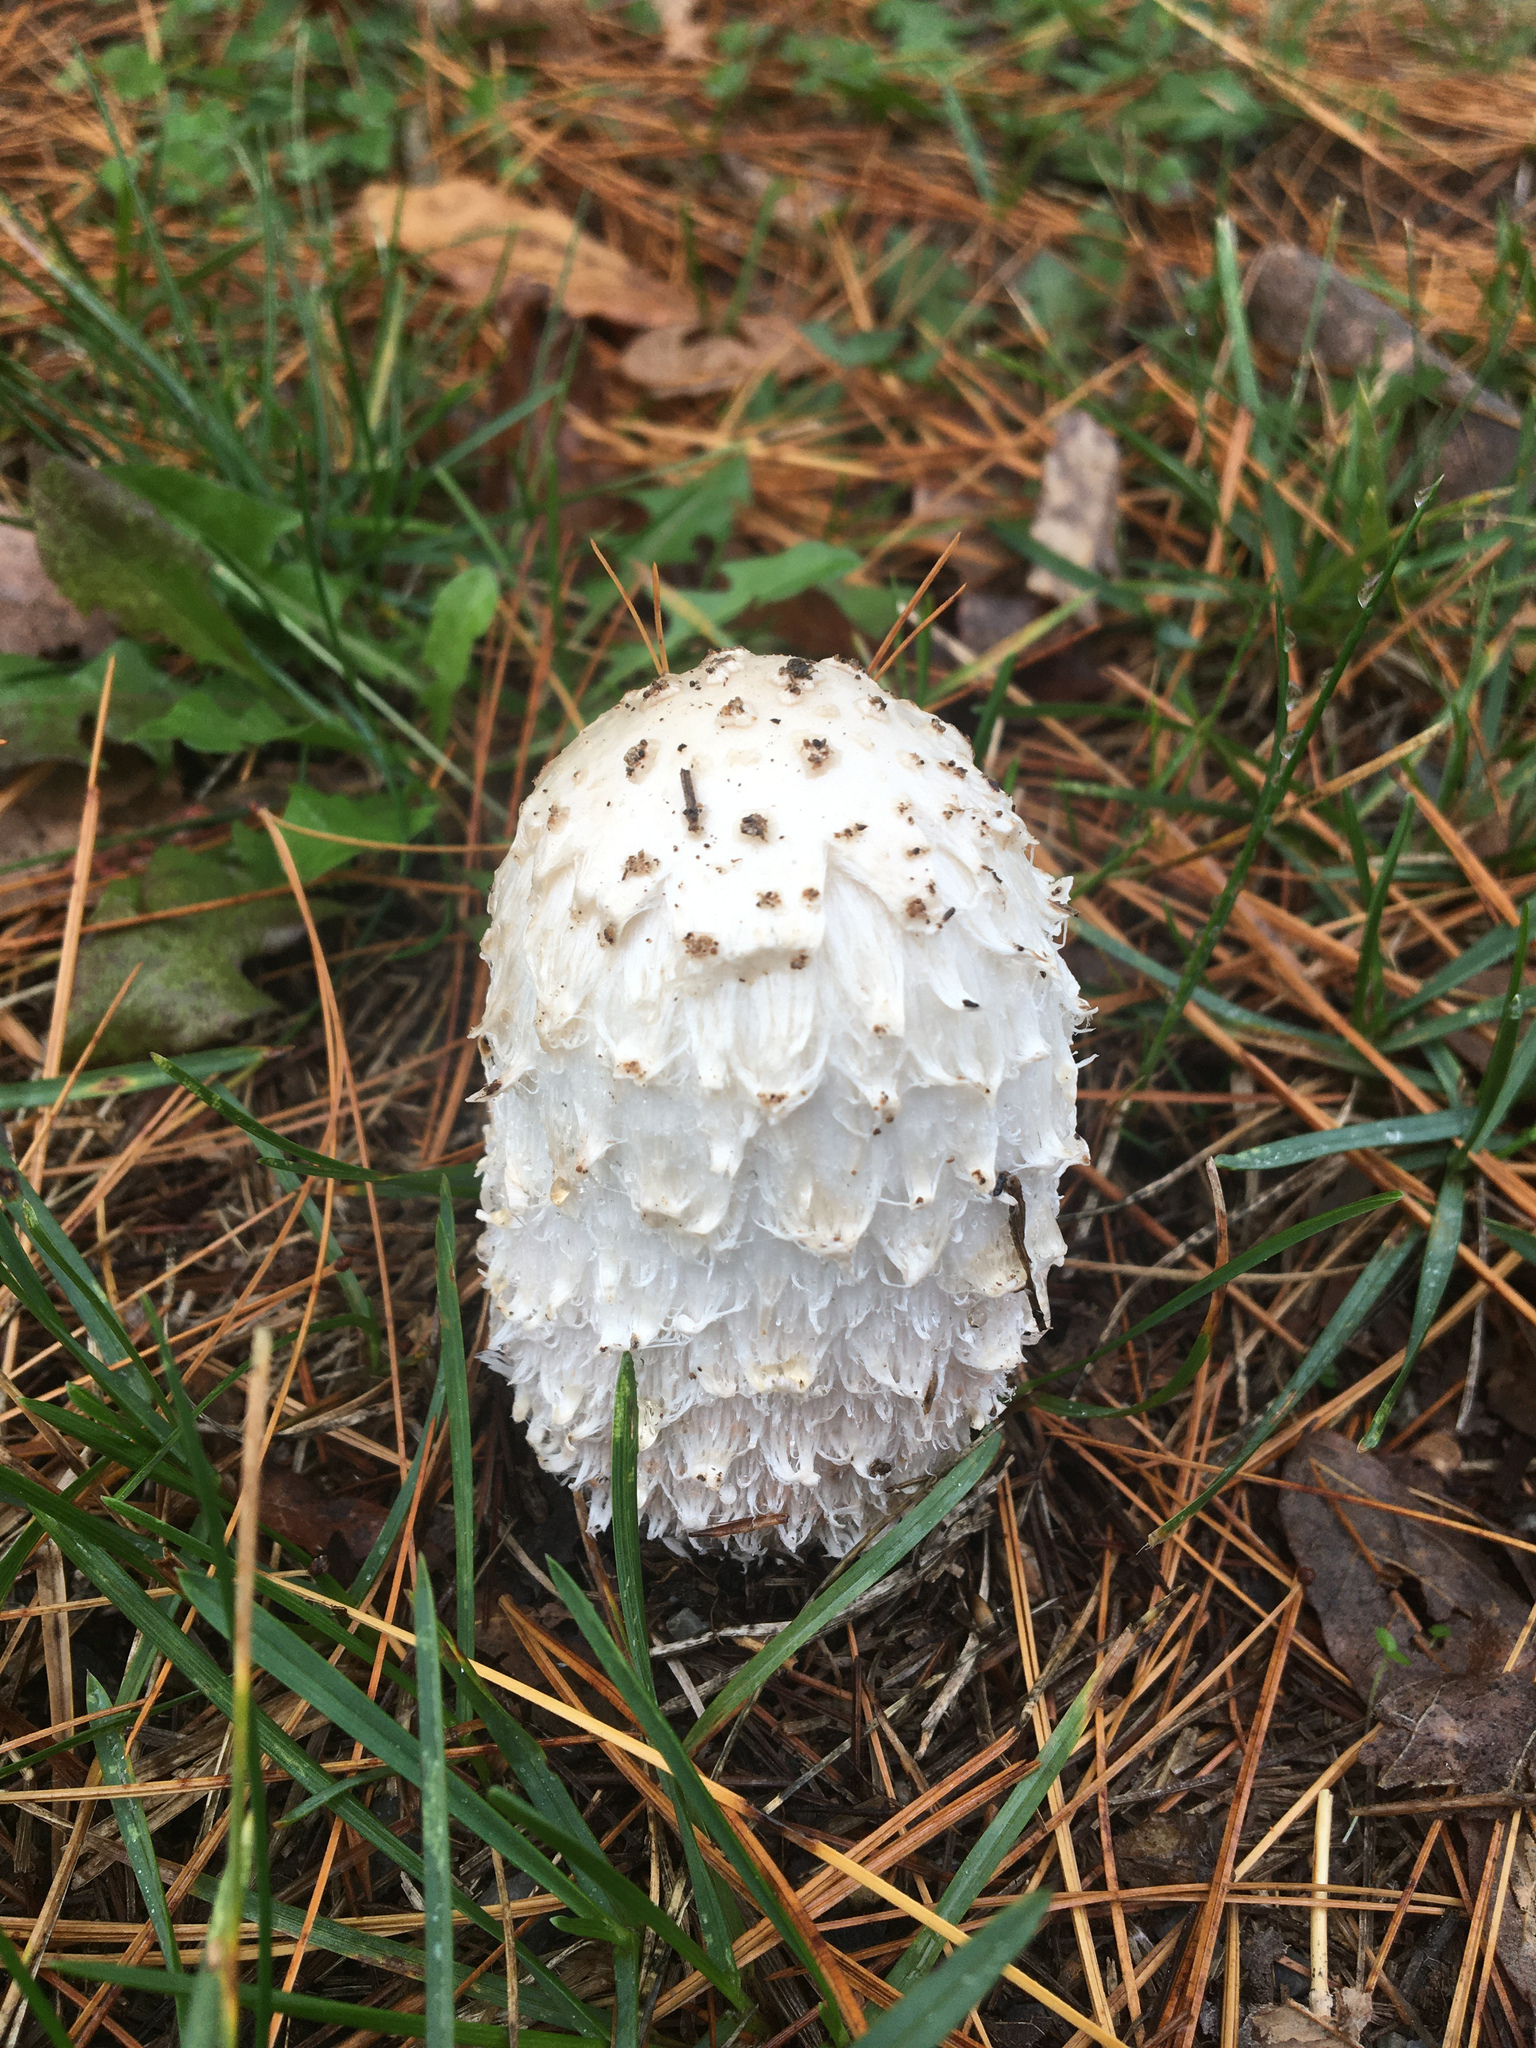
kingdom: Fungi
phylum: Basidiomycota
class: Agaricomycetes
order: Agaricales
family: Agaricaceae
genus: Coprinus
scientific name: Coprinus comatus
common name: Lawyer's wig
